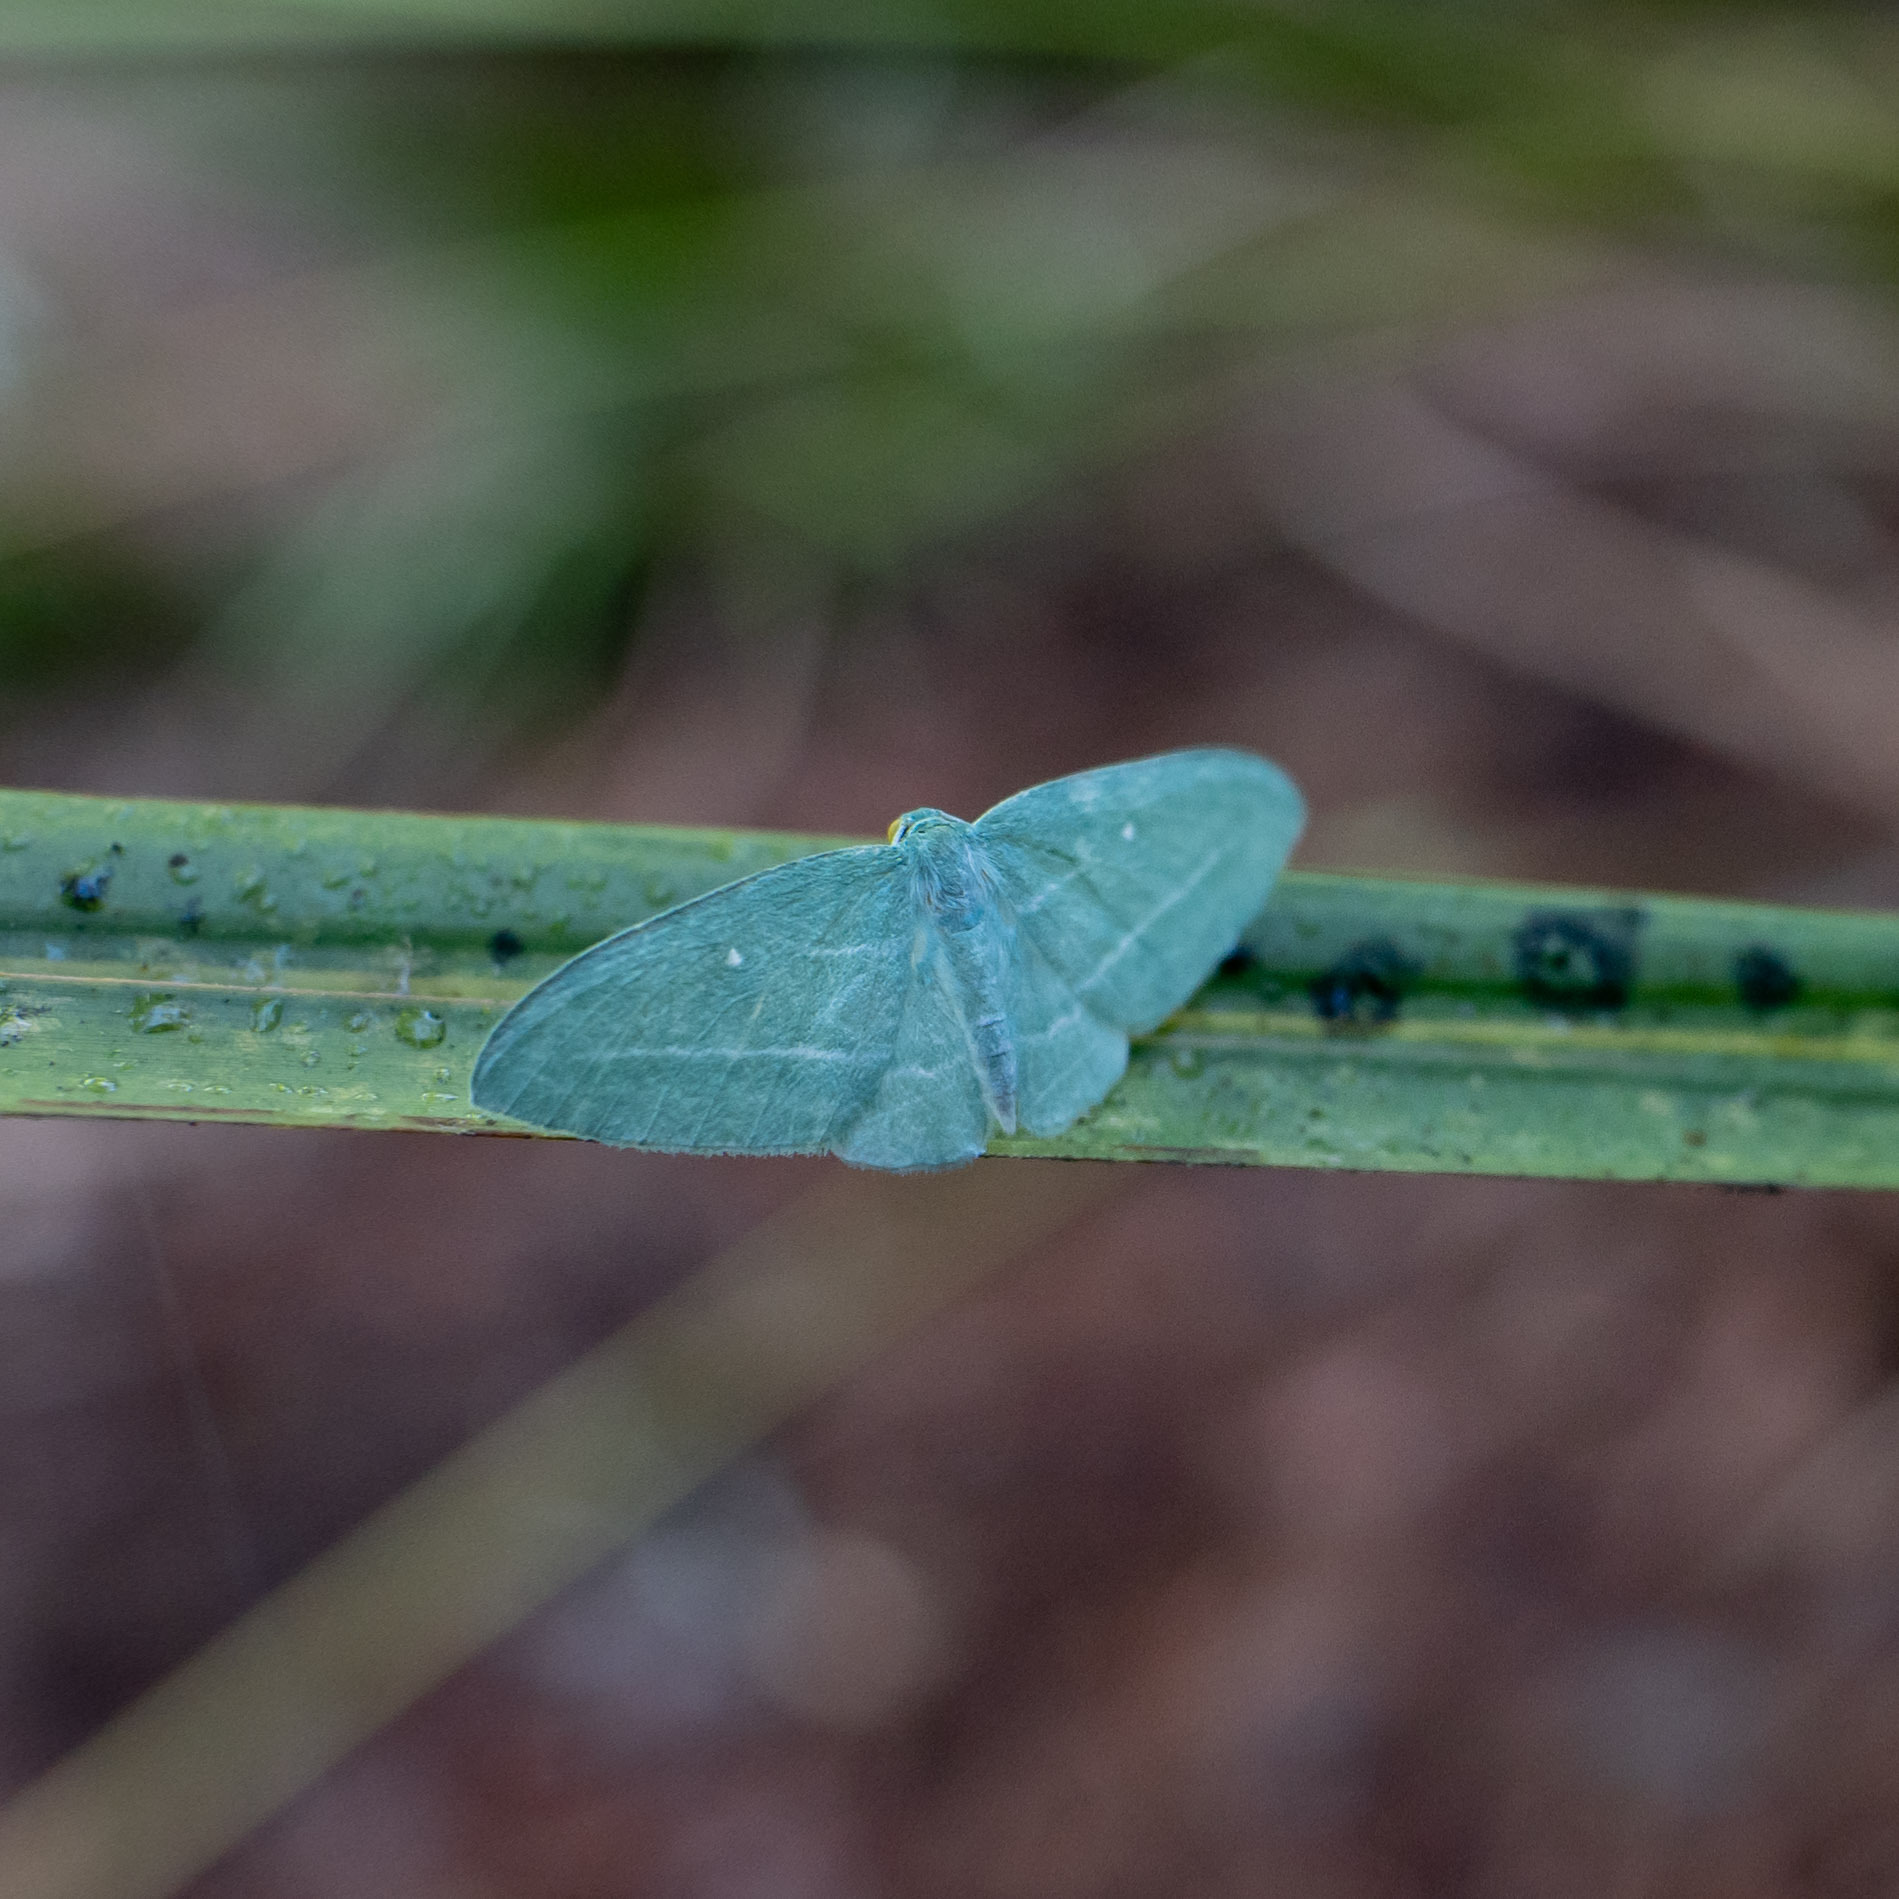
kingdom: Animalia
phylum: Arthropoda
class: Insecta
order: Lepidoptera
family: Geometridae
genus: Dyspteris
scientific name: Dyspteris abortivaria
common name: Bad-wing
